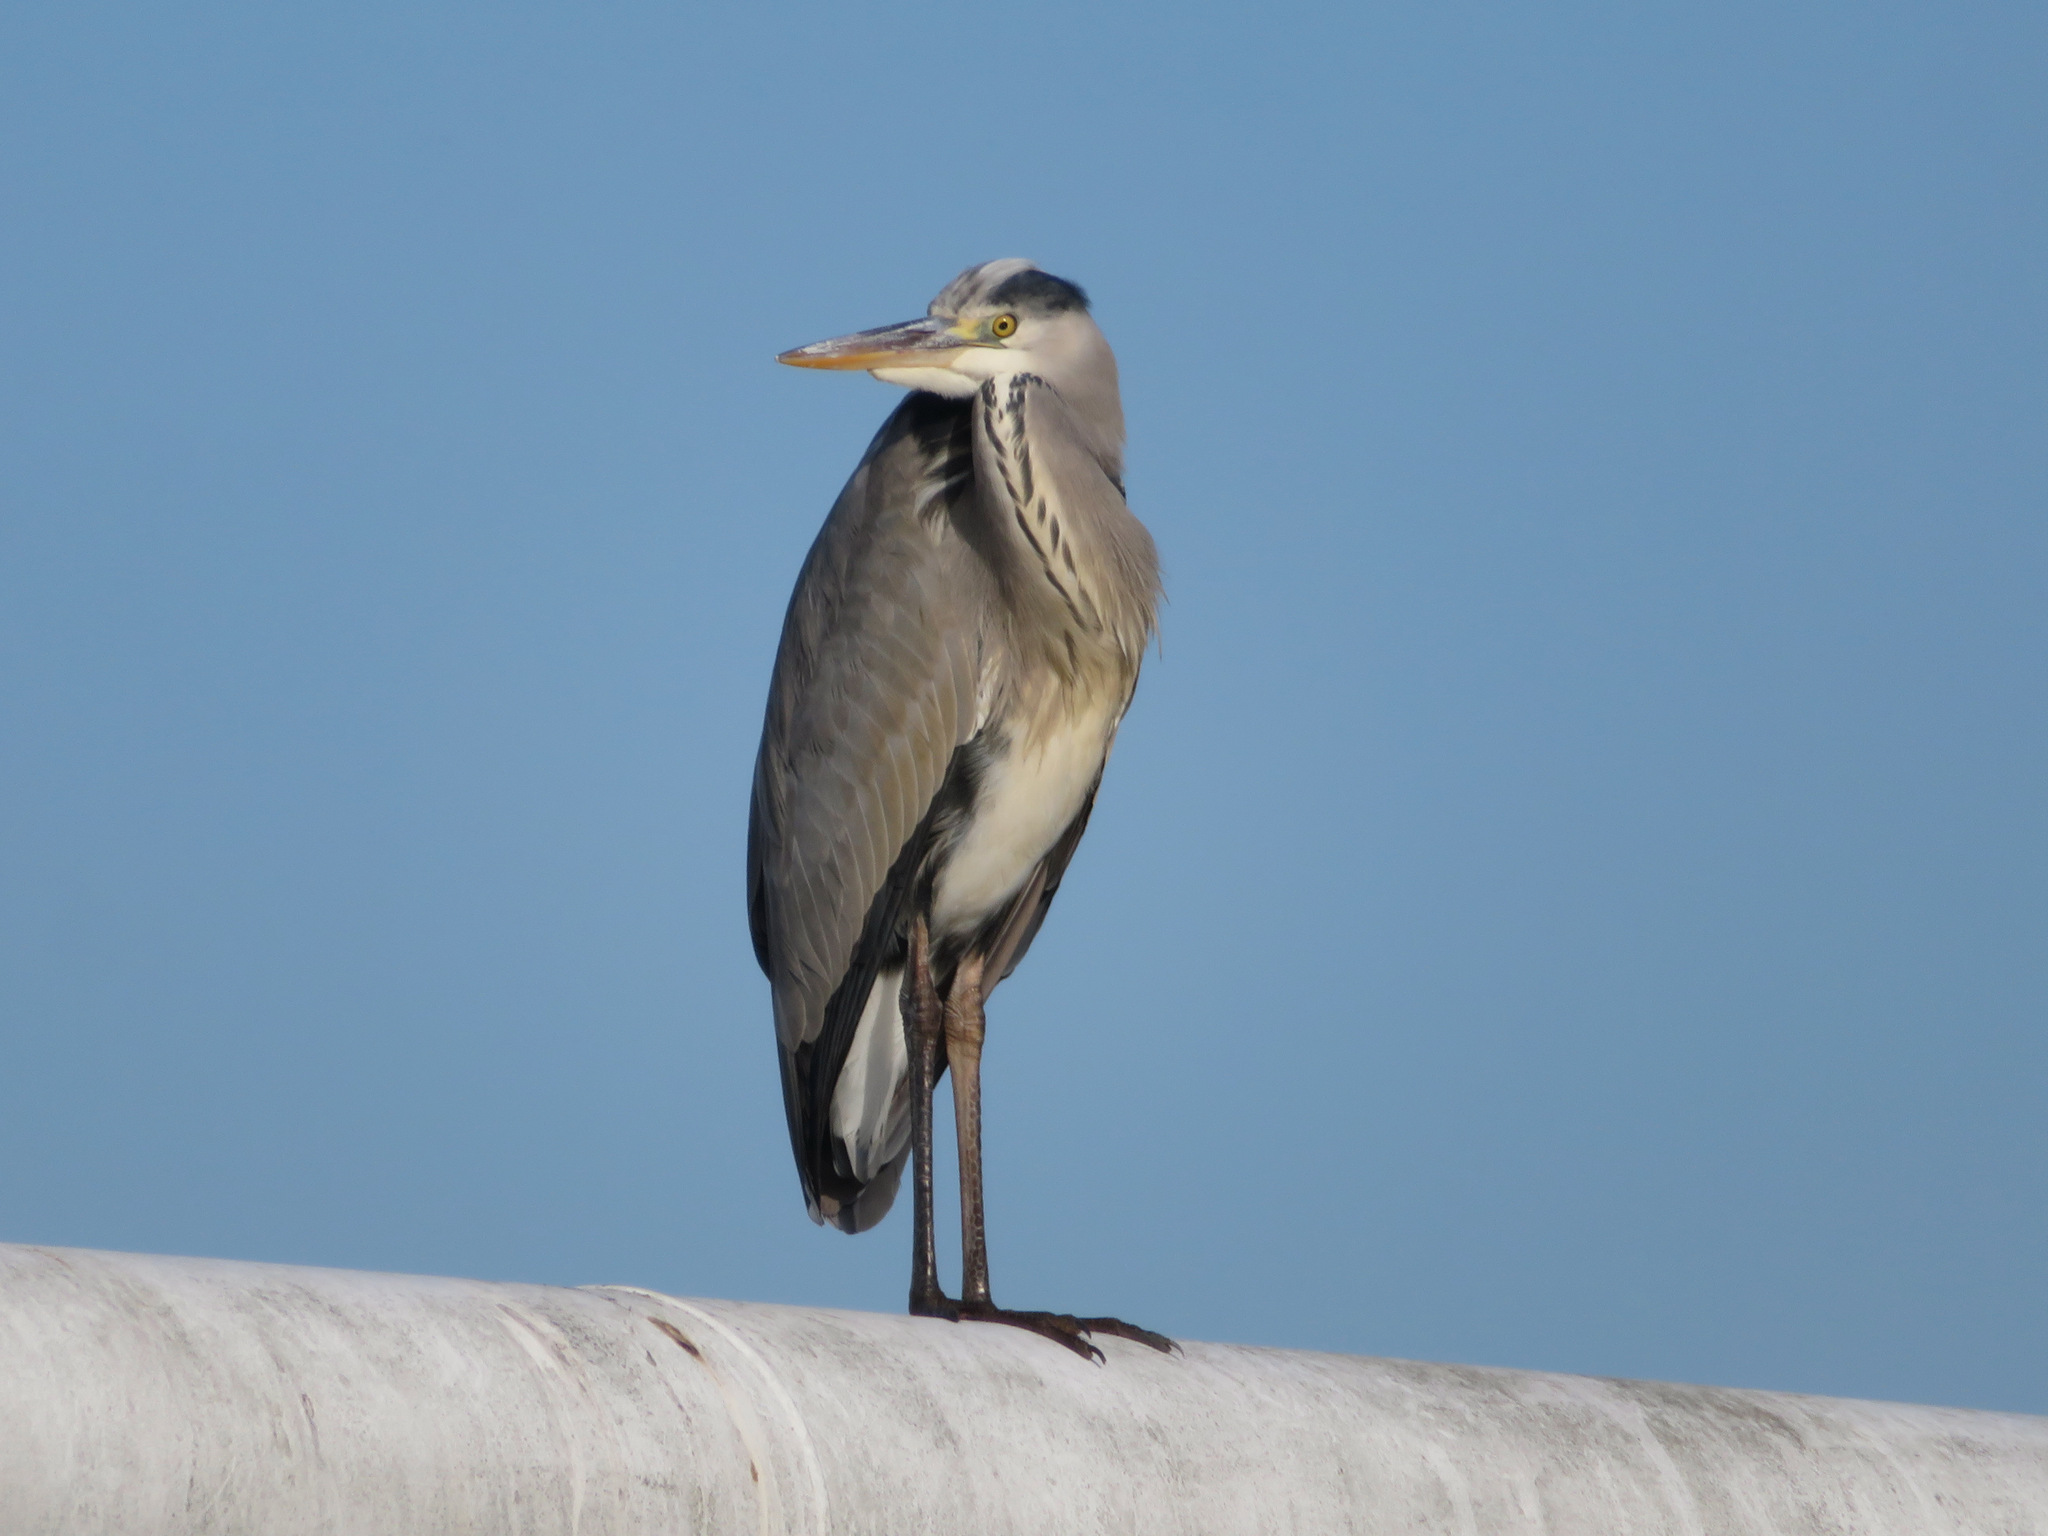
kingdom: Animalia
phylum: Chordata
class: Aves
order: Pelecaniformes
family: Ardeidae
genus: Ardea
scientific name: Ardea cinerea
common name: Grey heron
